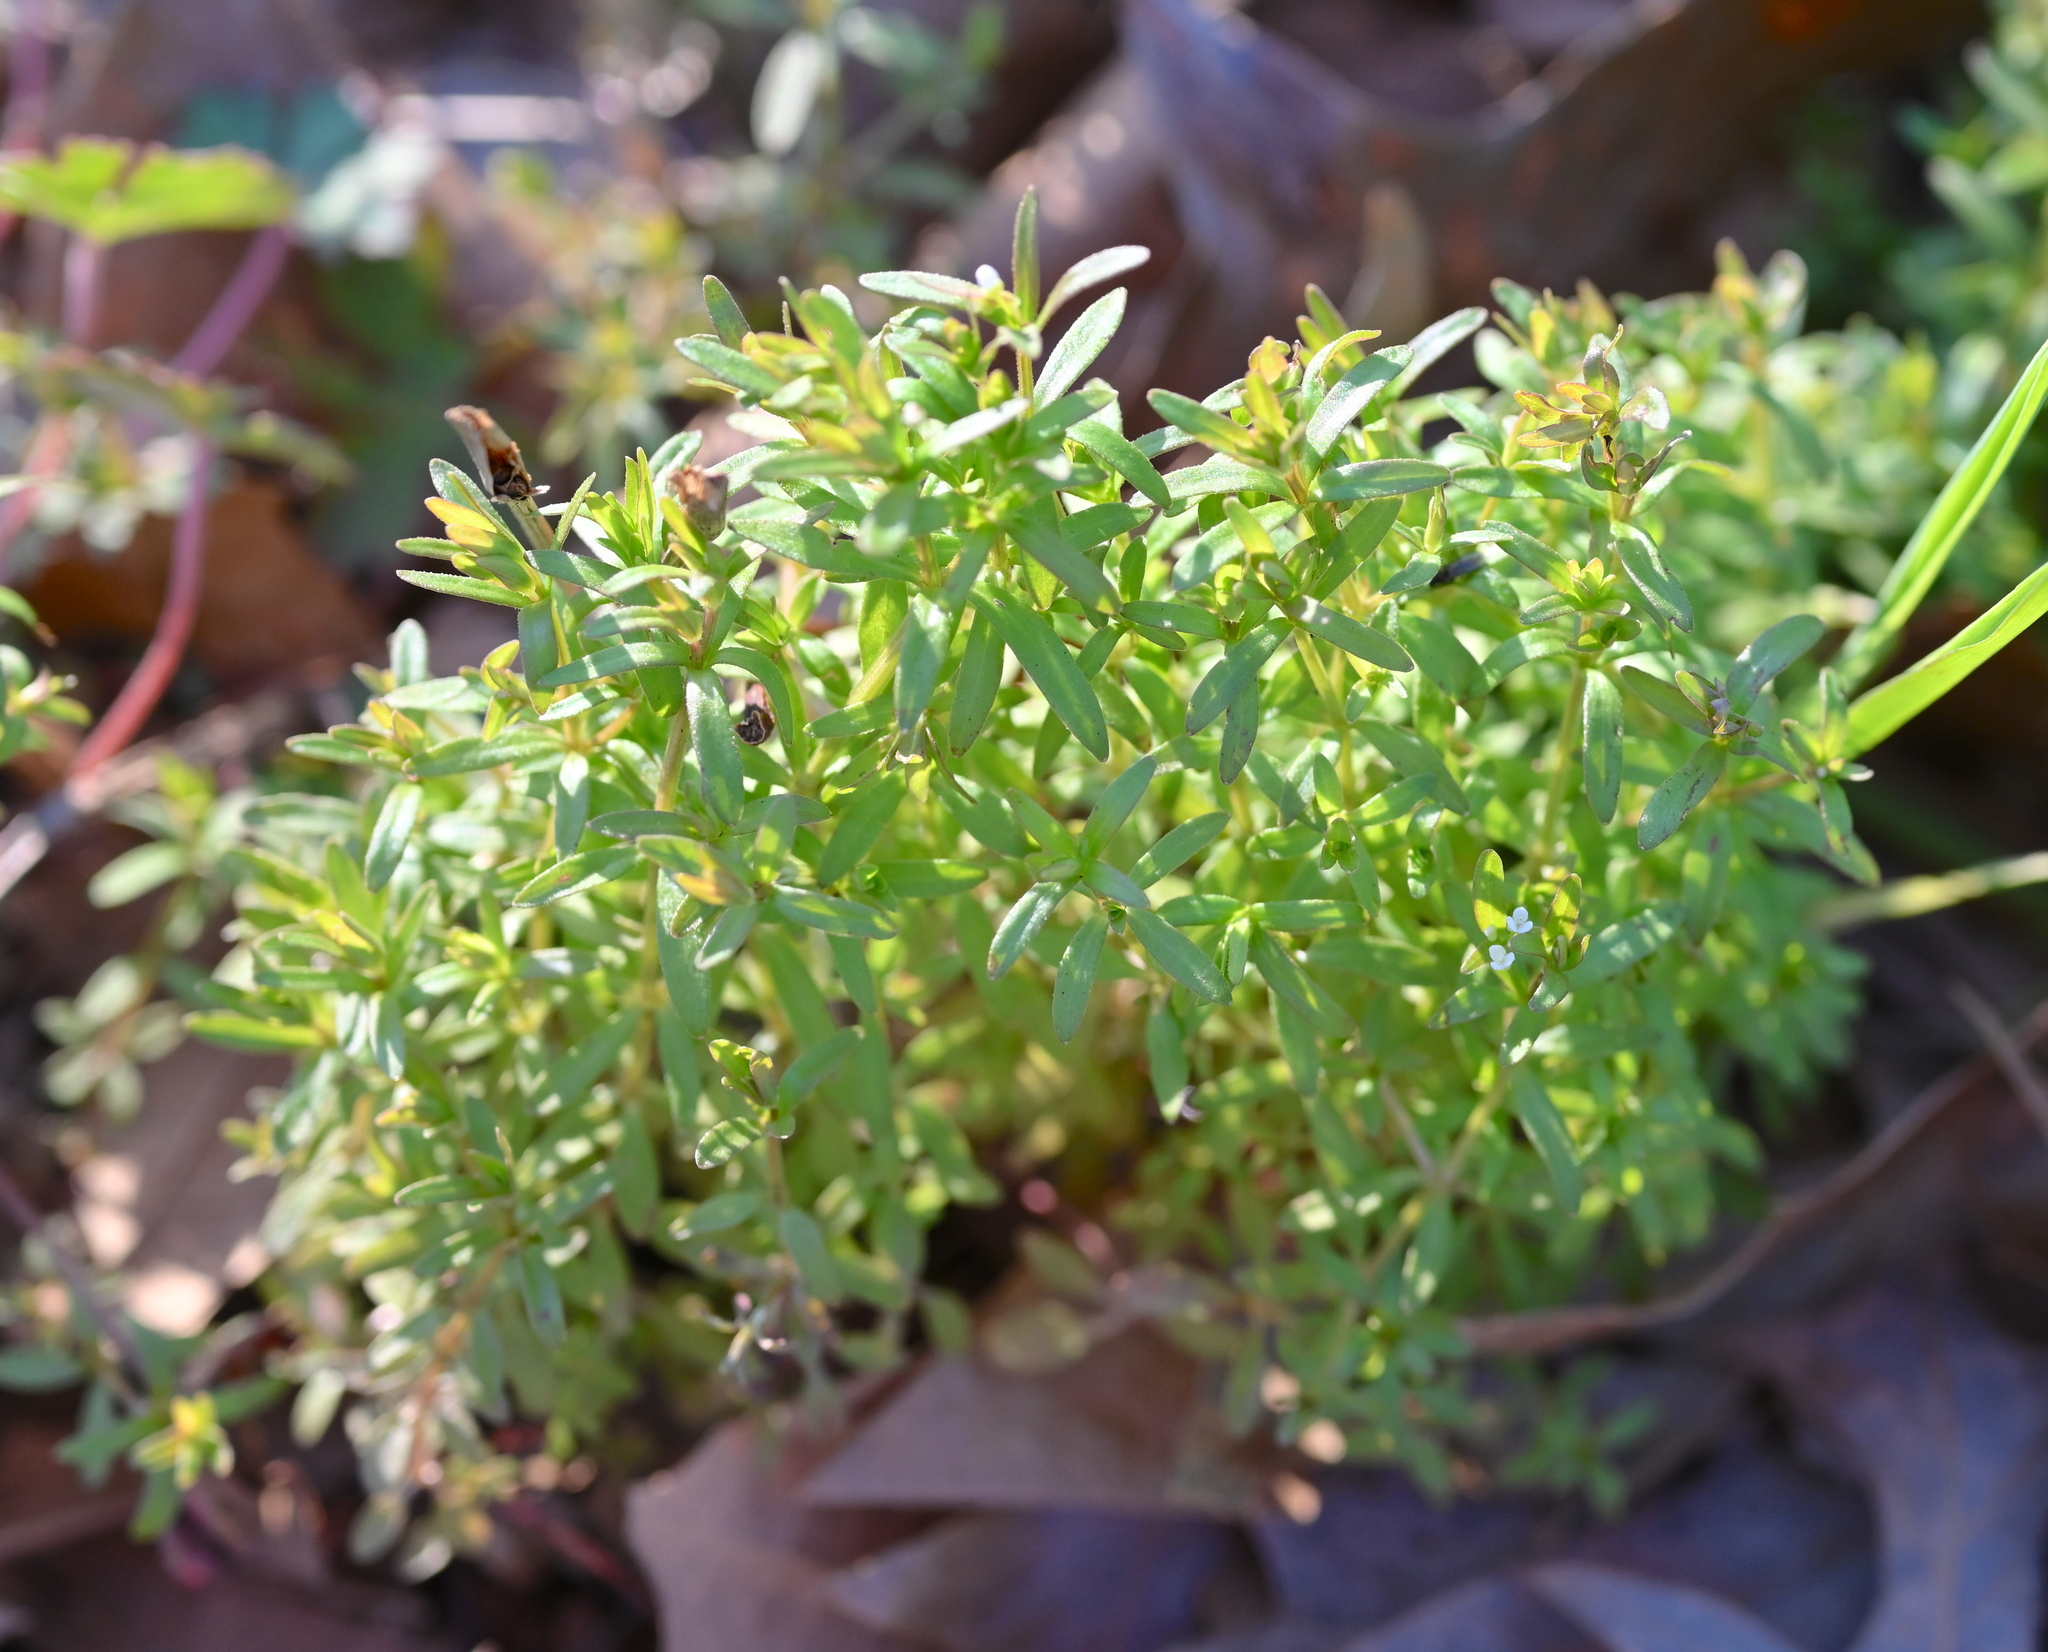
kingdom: Plantae
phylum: Tracheophyta
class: Magnoliopsida
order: Lamiales
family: Plantaginaceae
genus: Veronica
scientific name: Veronica peregrina
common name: Neckweed
